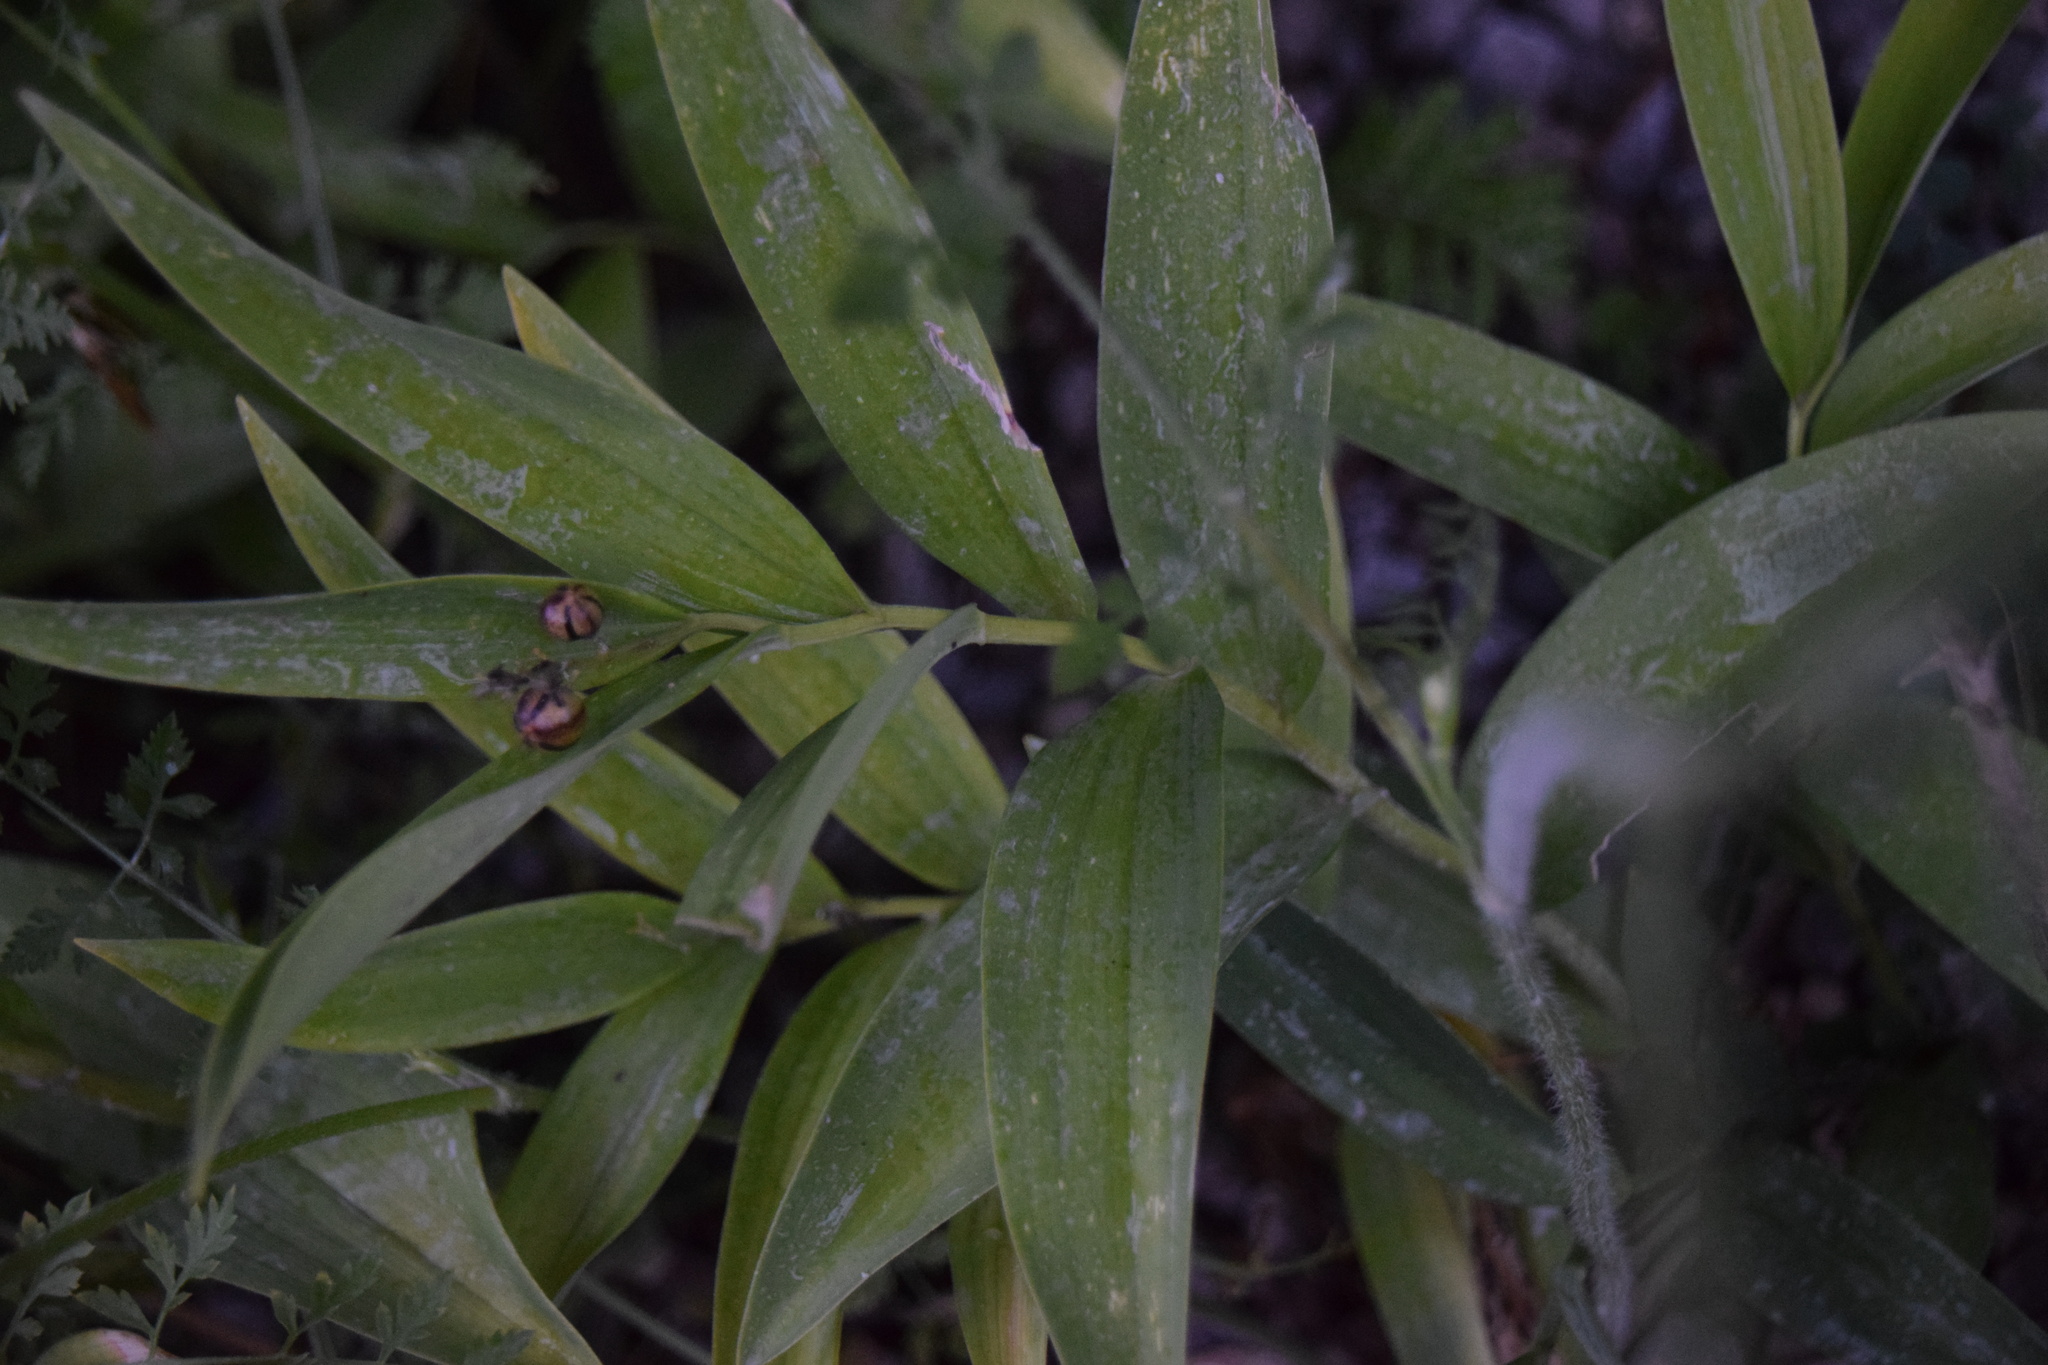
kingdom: Plantae
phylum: Tracheophyta
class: Liliopsida
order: Asparagales
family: Asparagaceae
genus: Maianthemum
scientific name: Maianthemum stellatum
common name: Little false solomon's seal
